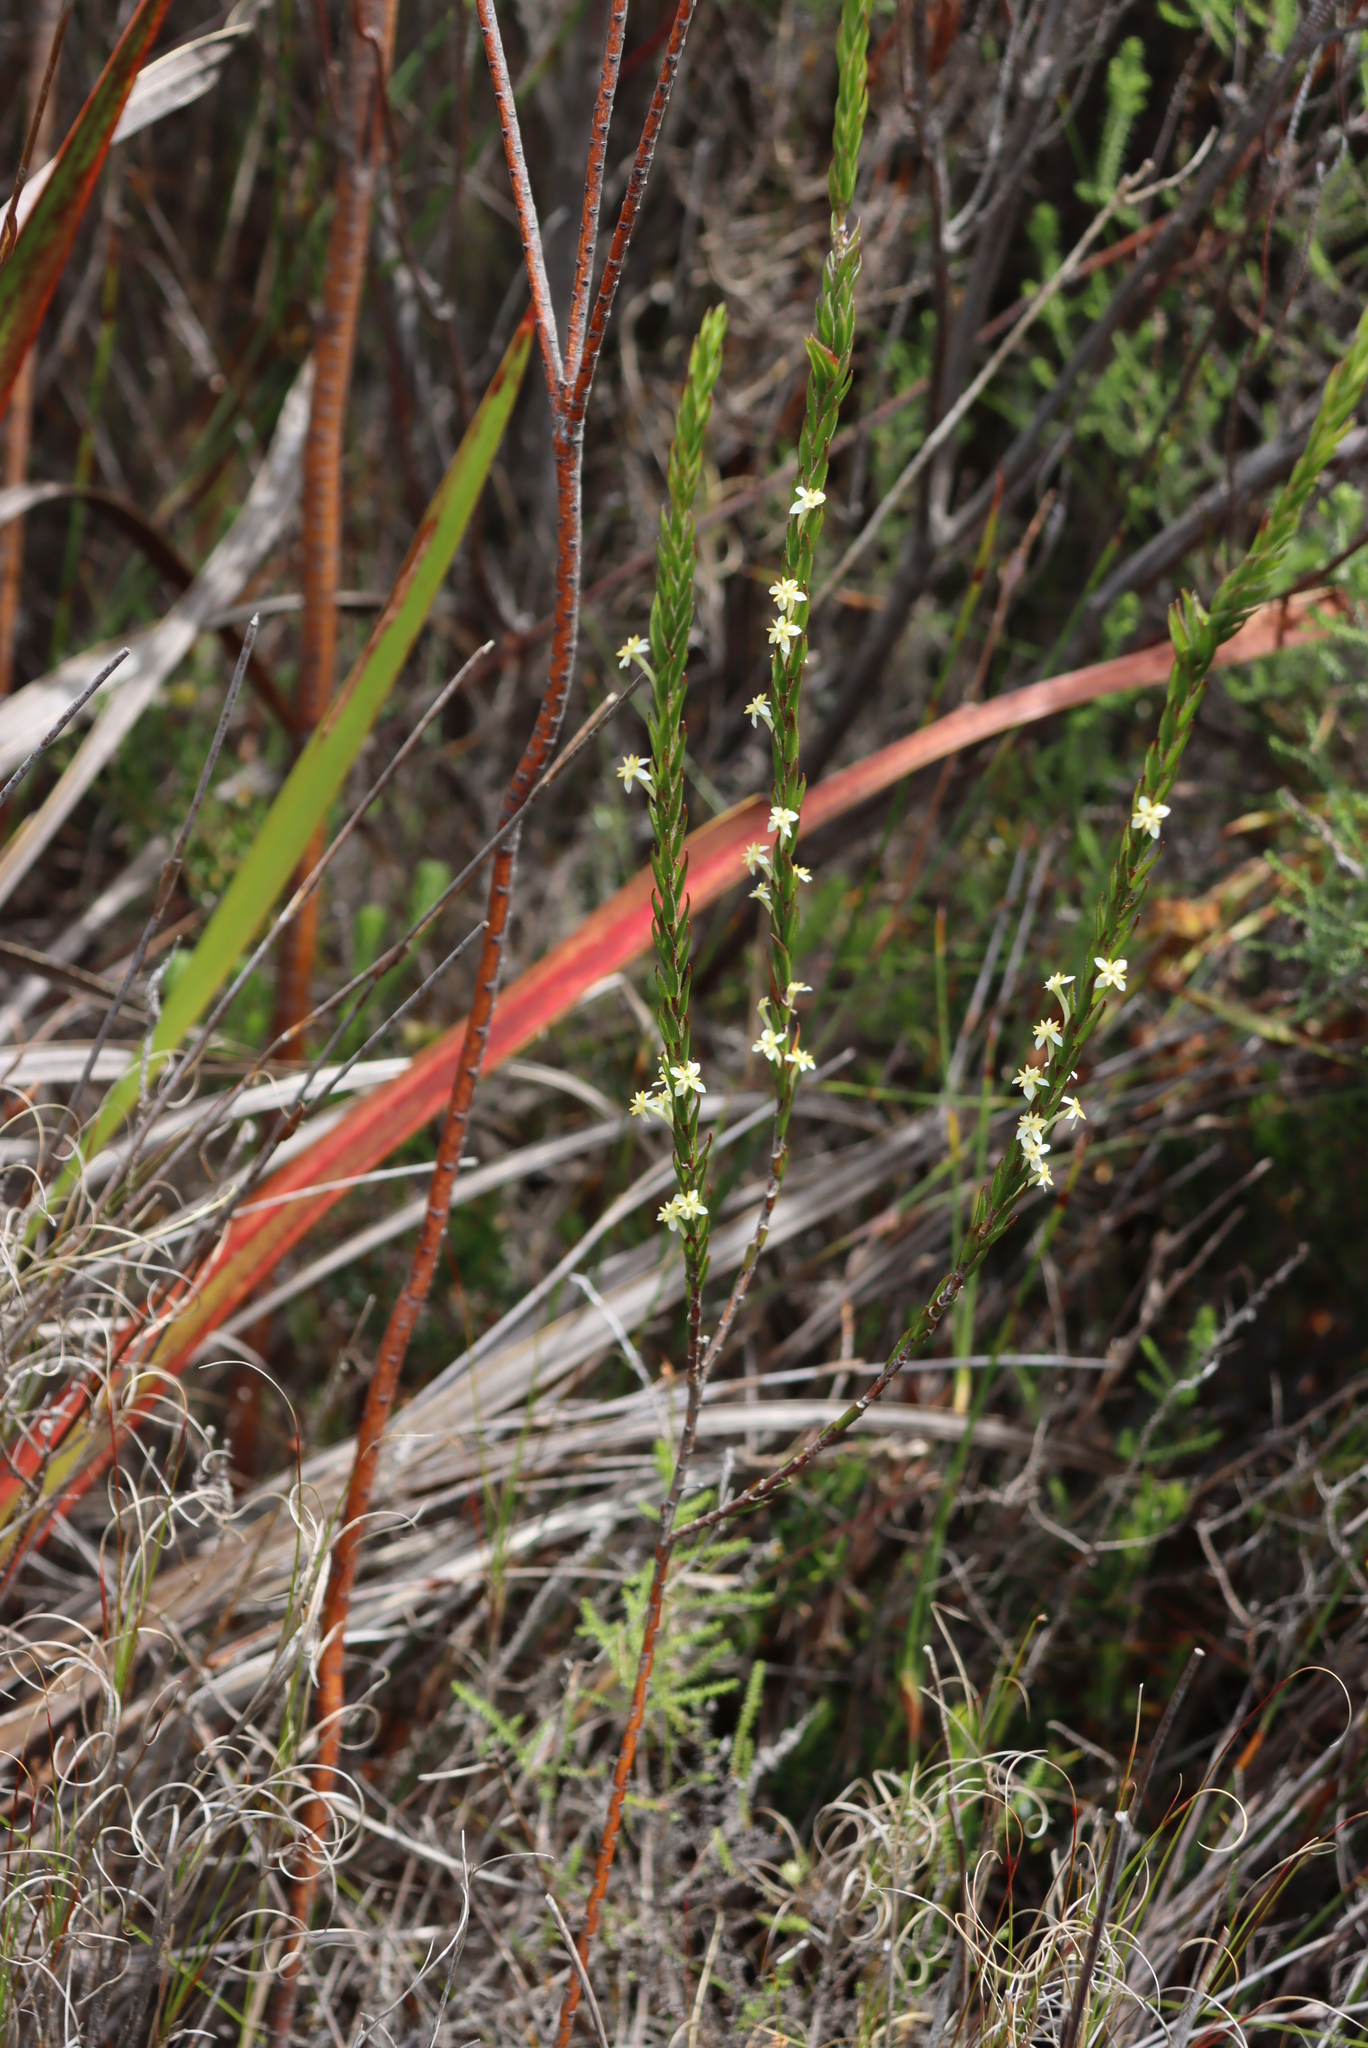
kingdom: Plantae
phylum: Tracheophyta
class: Magnoliopsida
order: Malvales
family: Thymelaeaceae
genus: Struthiola
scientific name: Struthiola ciliata
